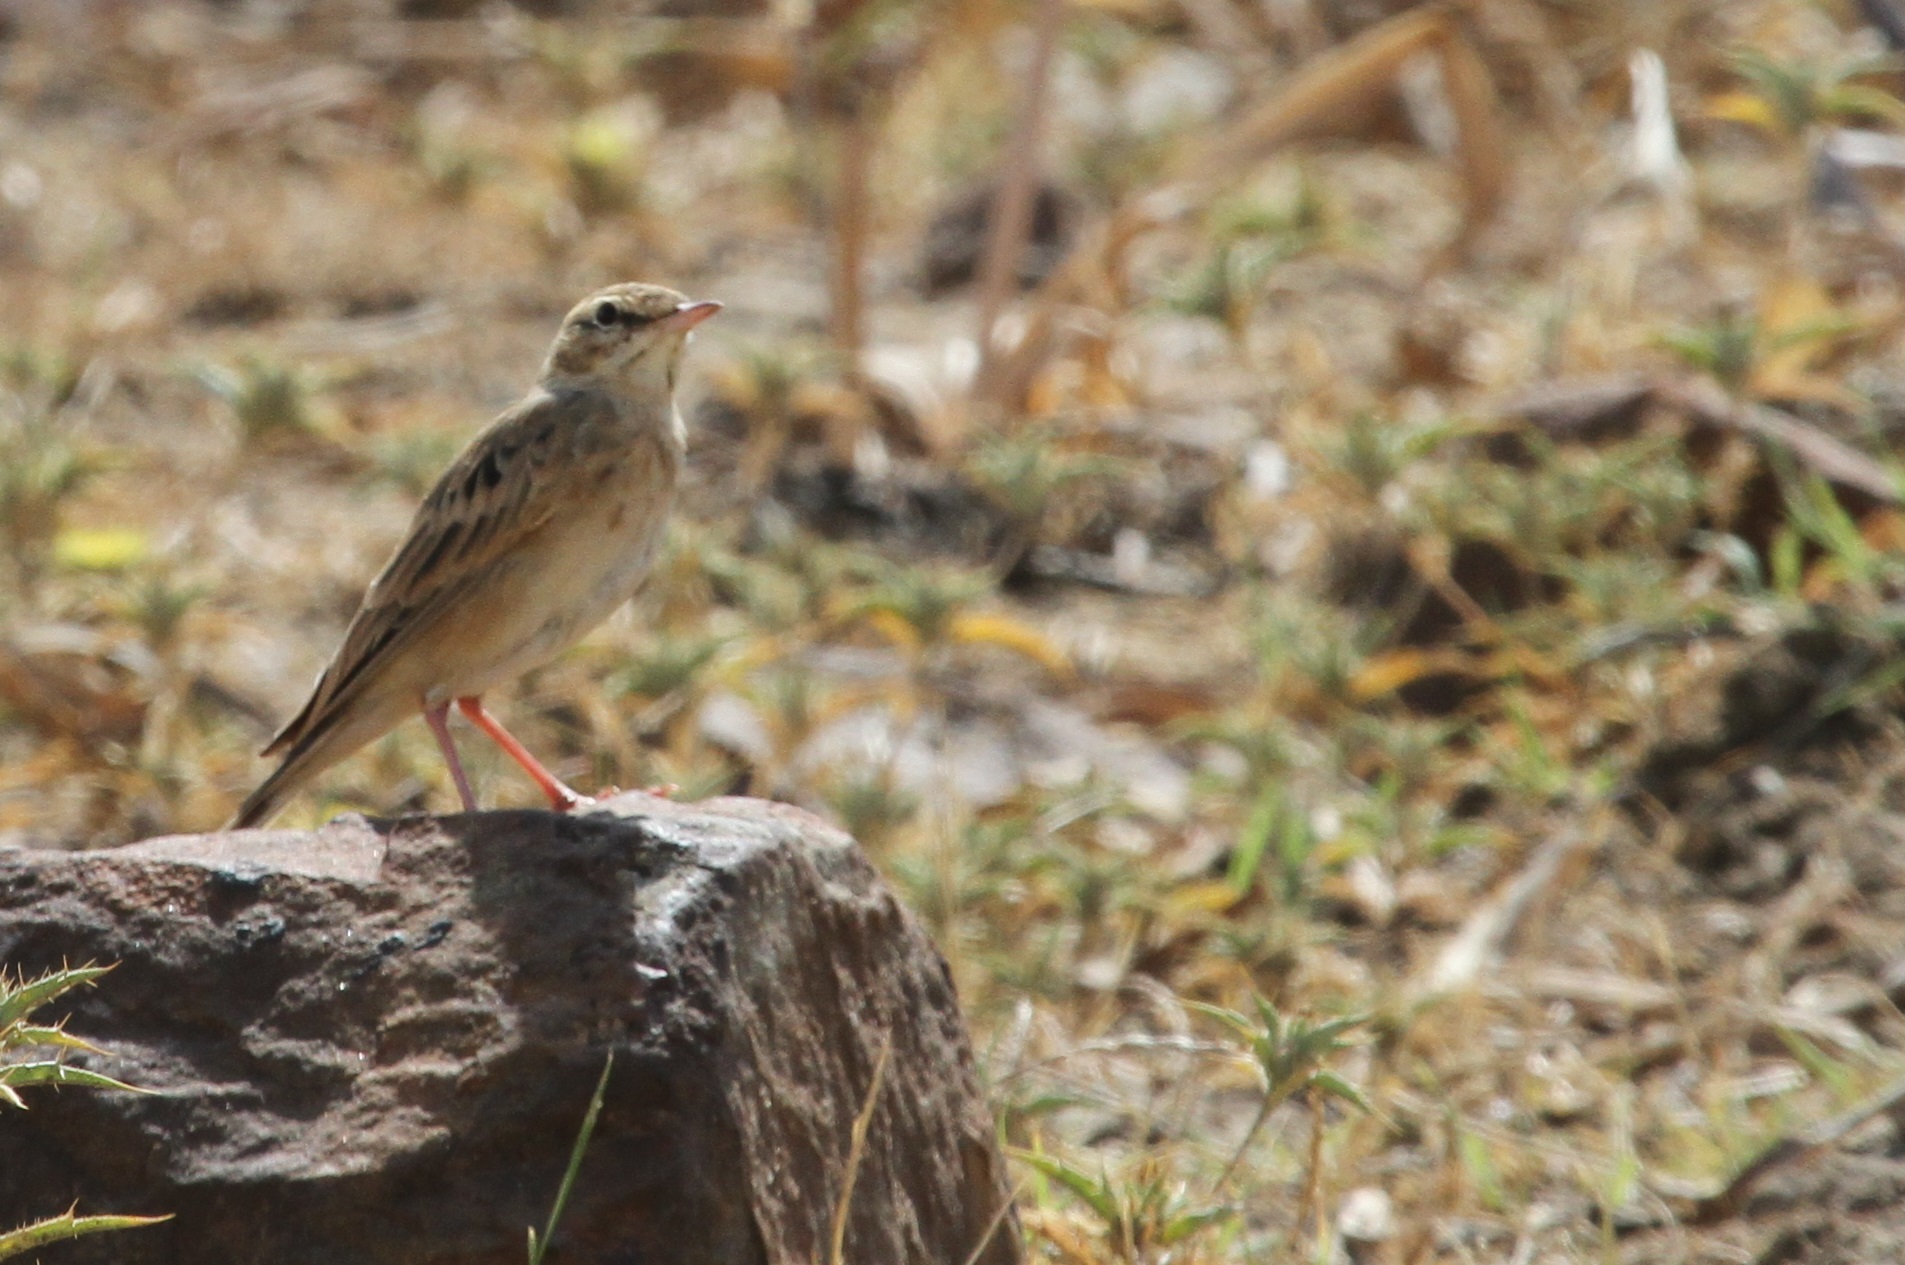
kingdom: Animalia
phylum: Chordata
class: Aves
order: Passeriformes
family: Motacillidae
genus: Anthus
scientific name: Anthus campestris
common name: Tawny pipit
